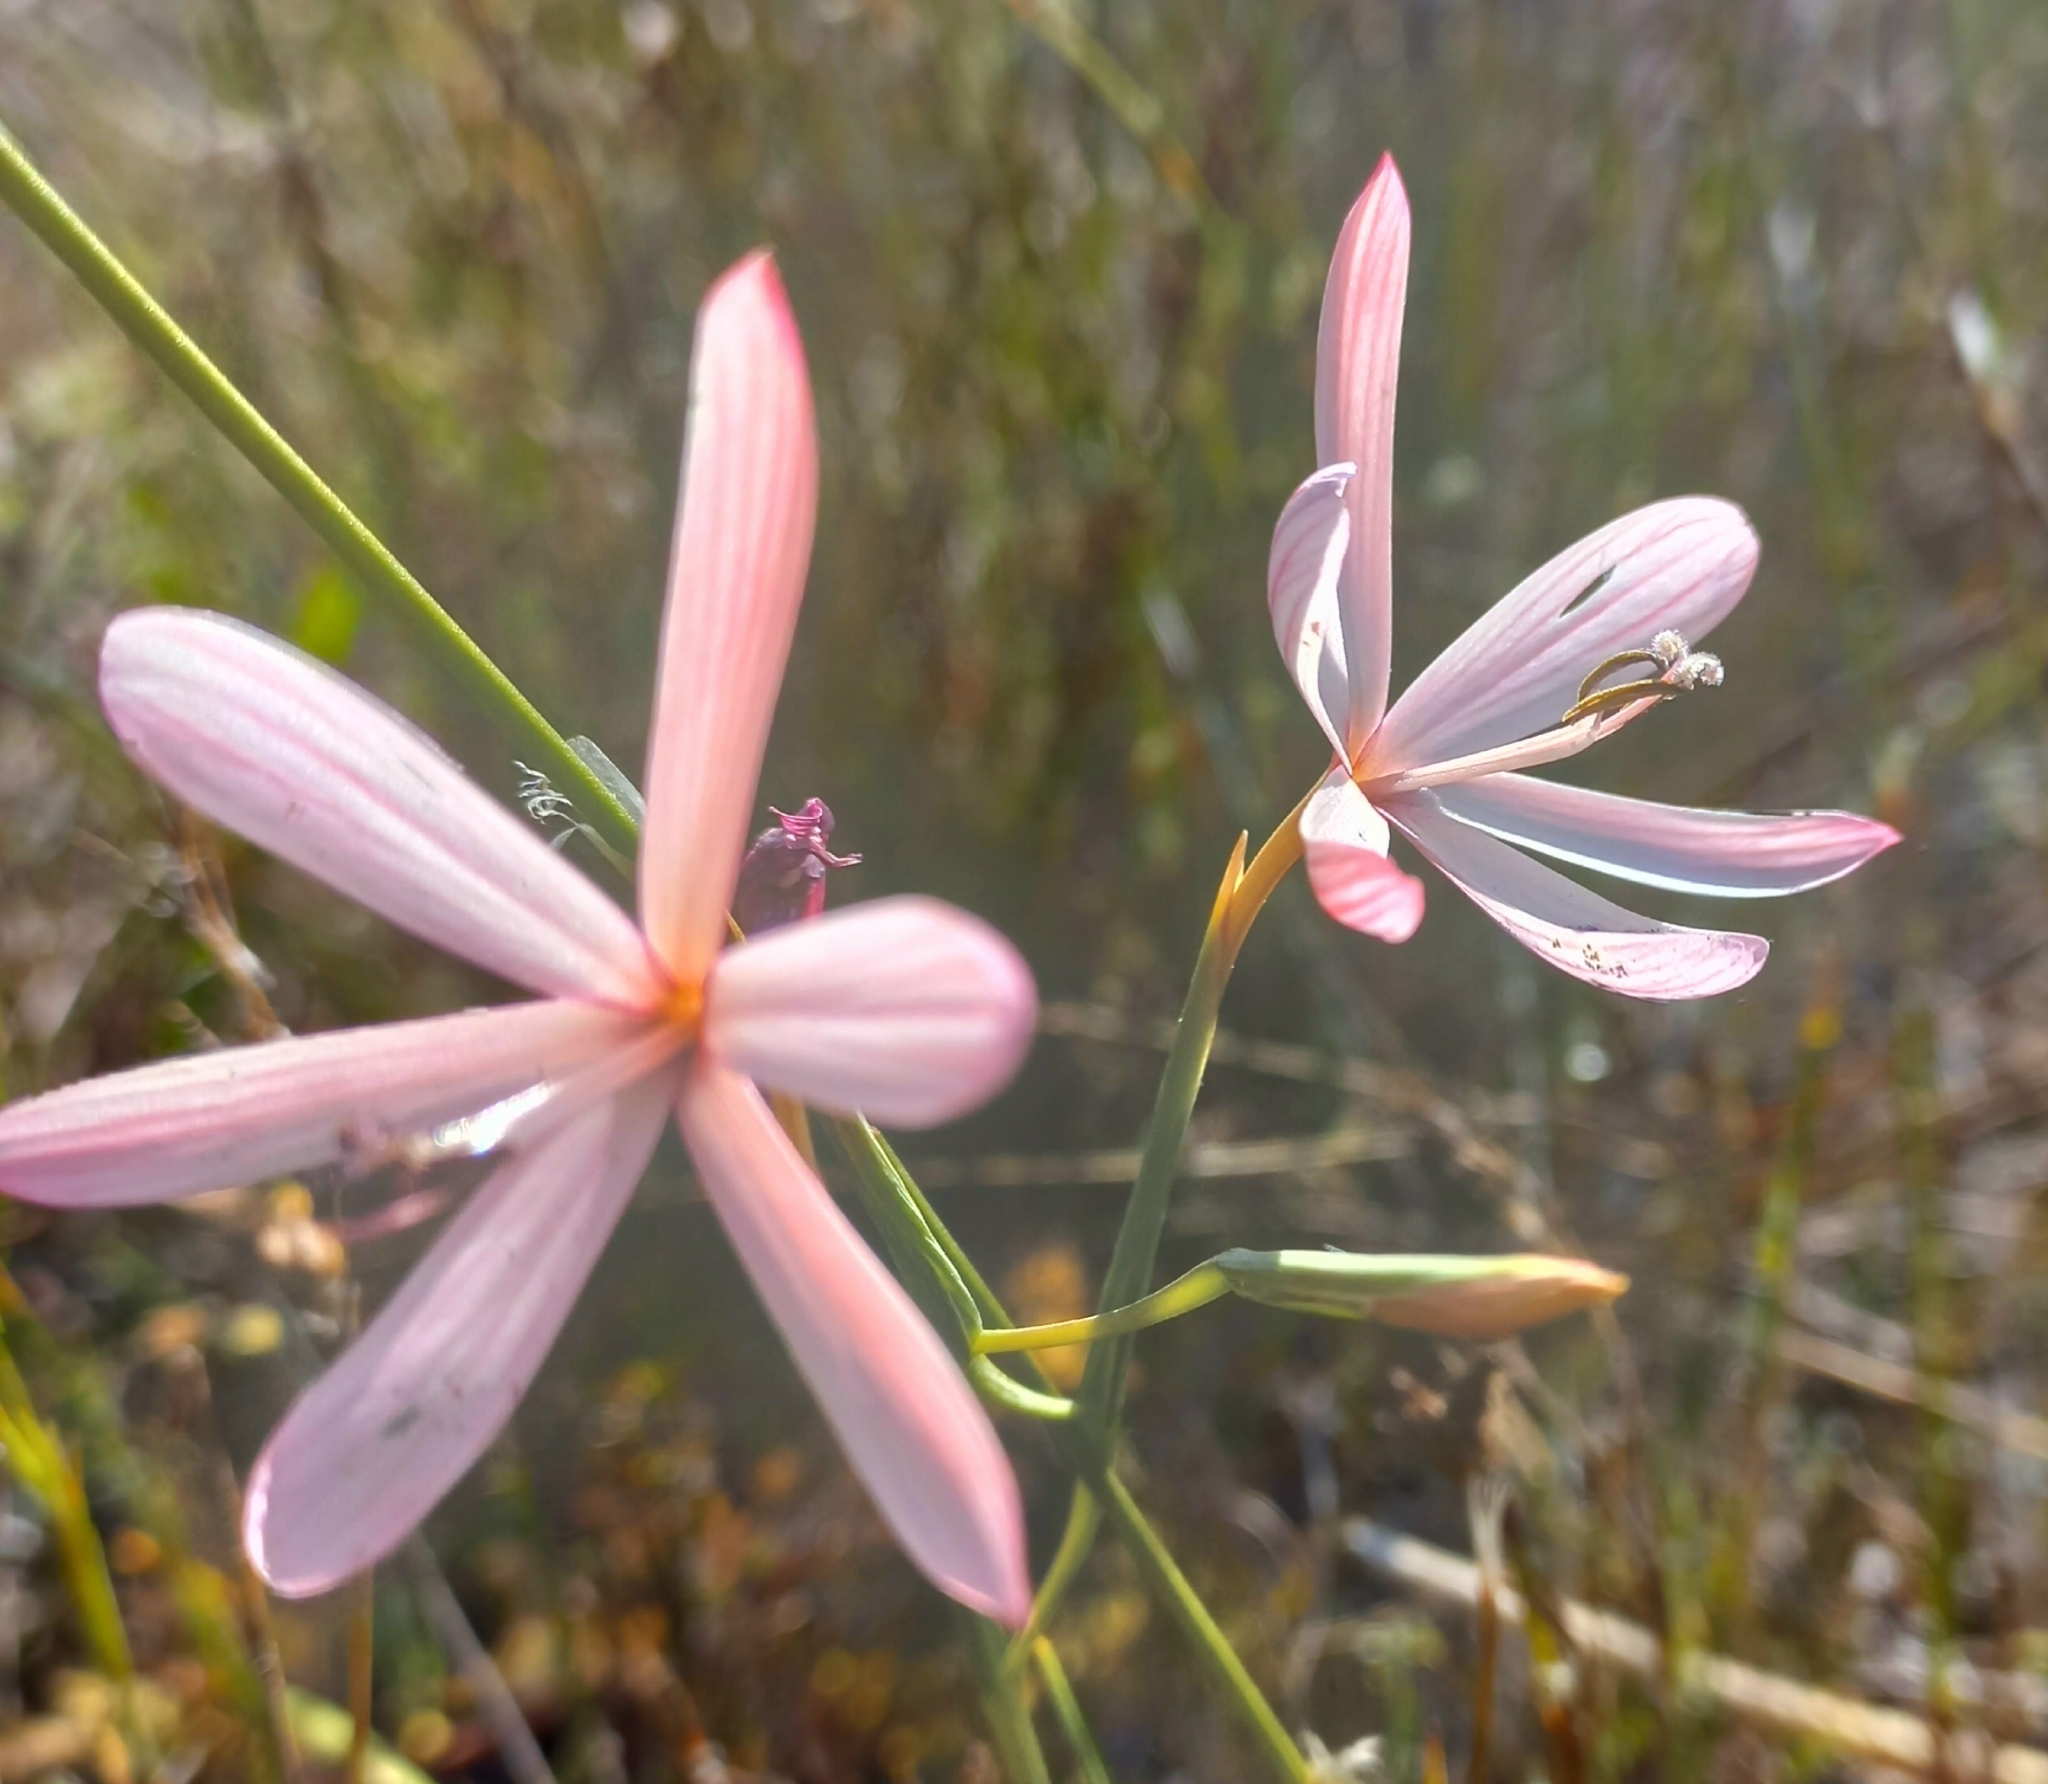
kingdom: Plantae
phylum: Tracheophyta
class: Liliopsida
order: Asparagales
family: Iridaceae
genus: Geissorhiza
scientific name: Geissorhiza bonae-spei
